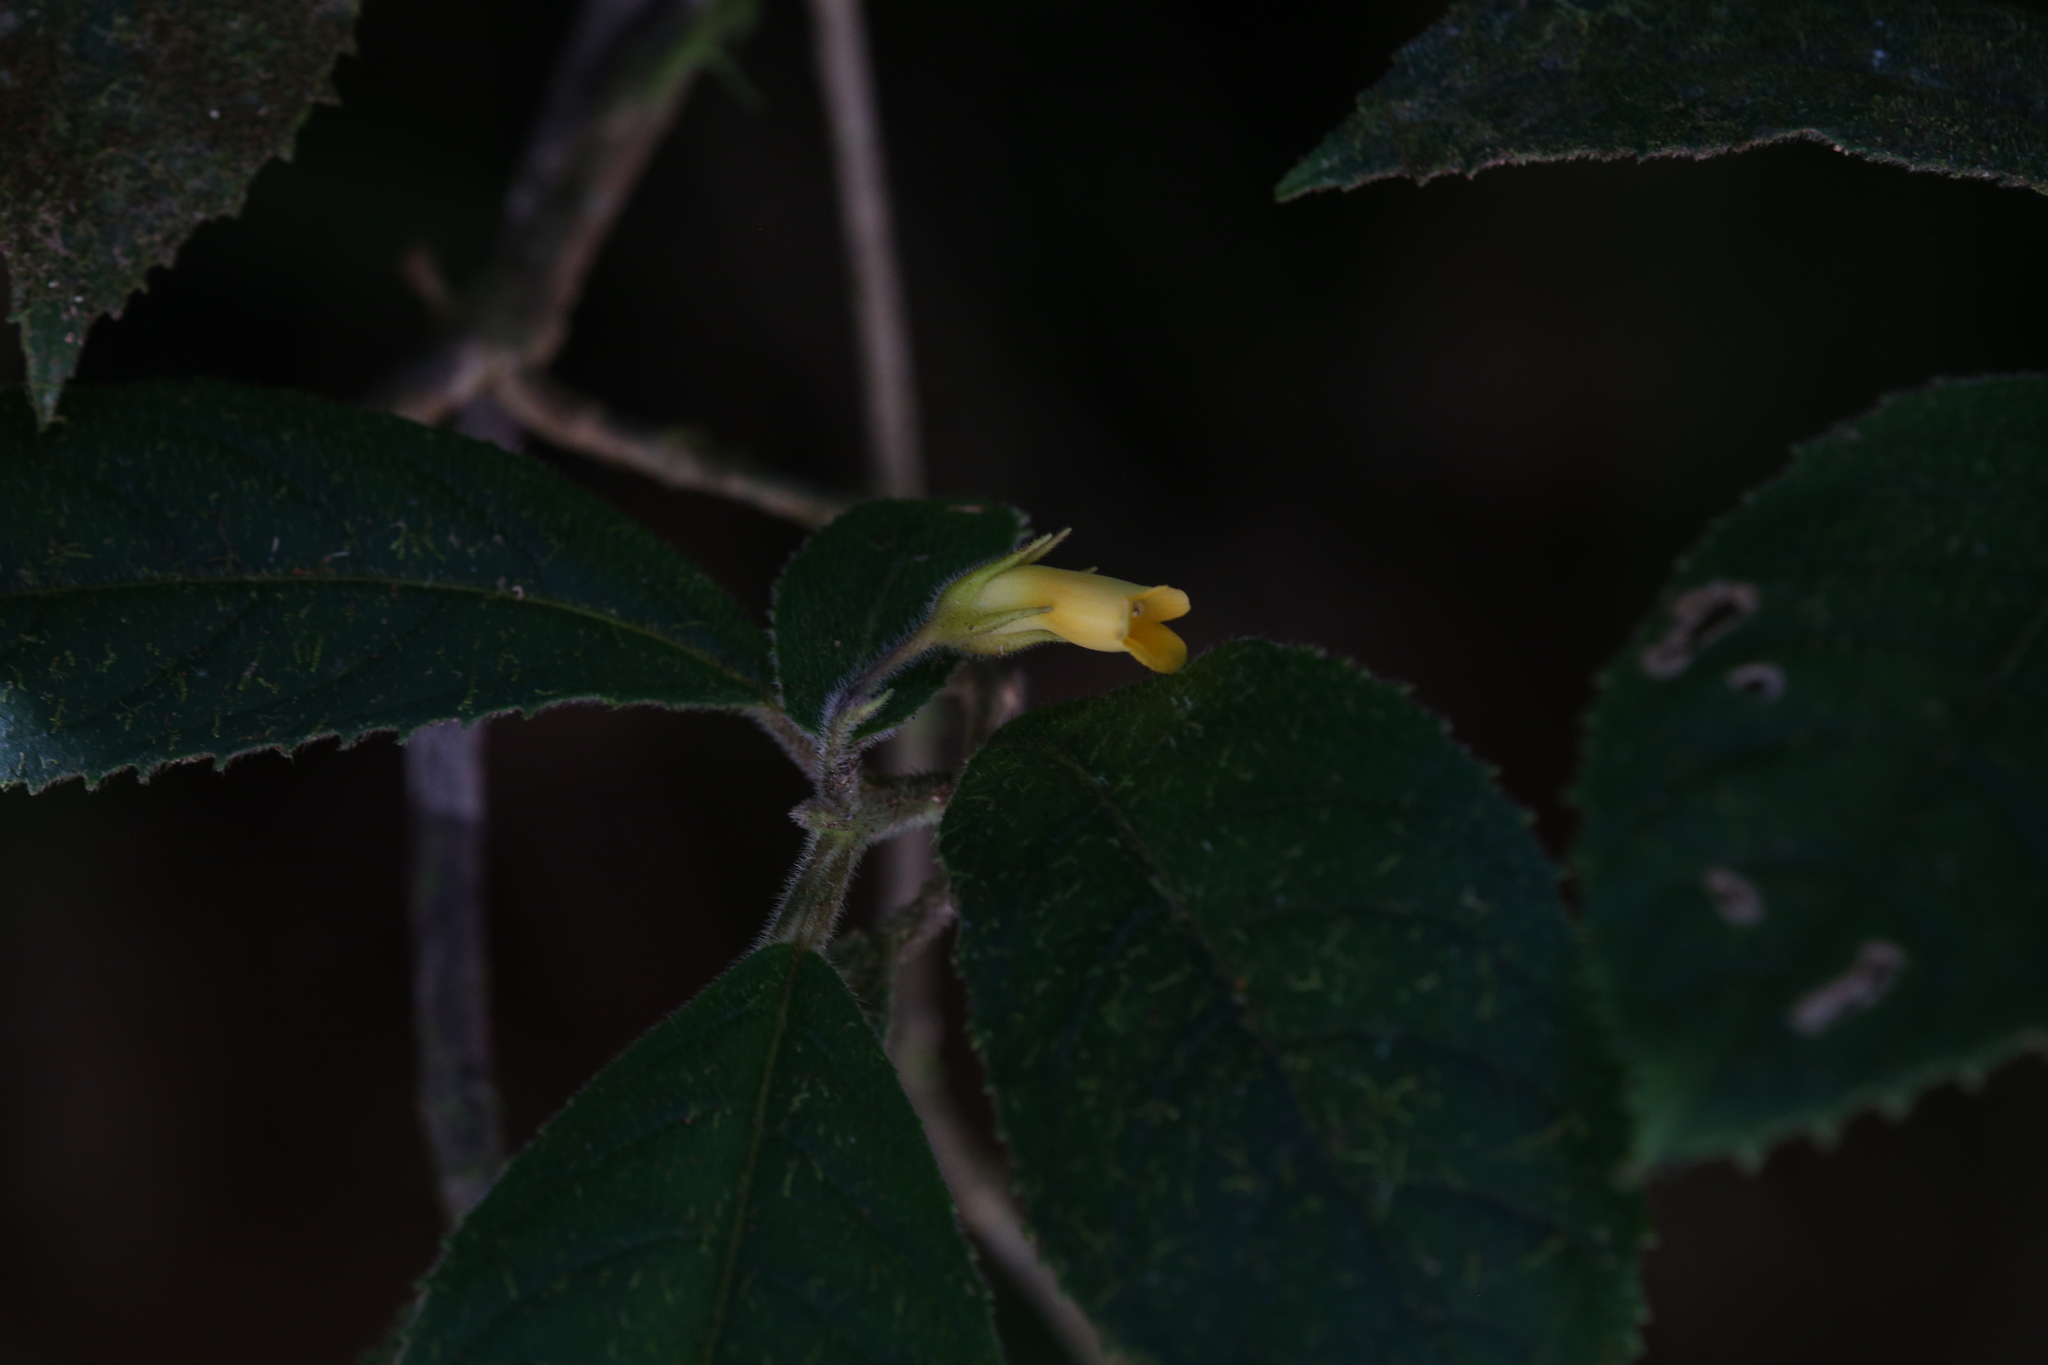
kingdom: Plantae
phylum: Tracheophyta
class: Magnoliopsida
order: Lamiales
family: Gesneriaceae
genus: Lenbrassia
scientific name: Lenbrassia australiana
